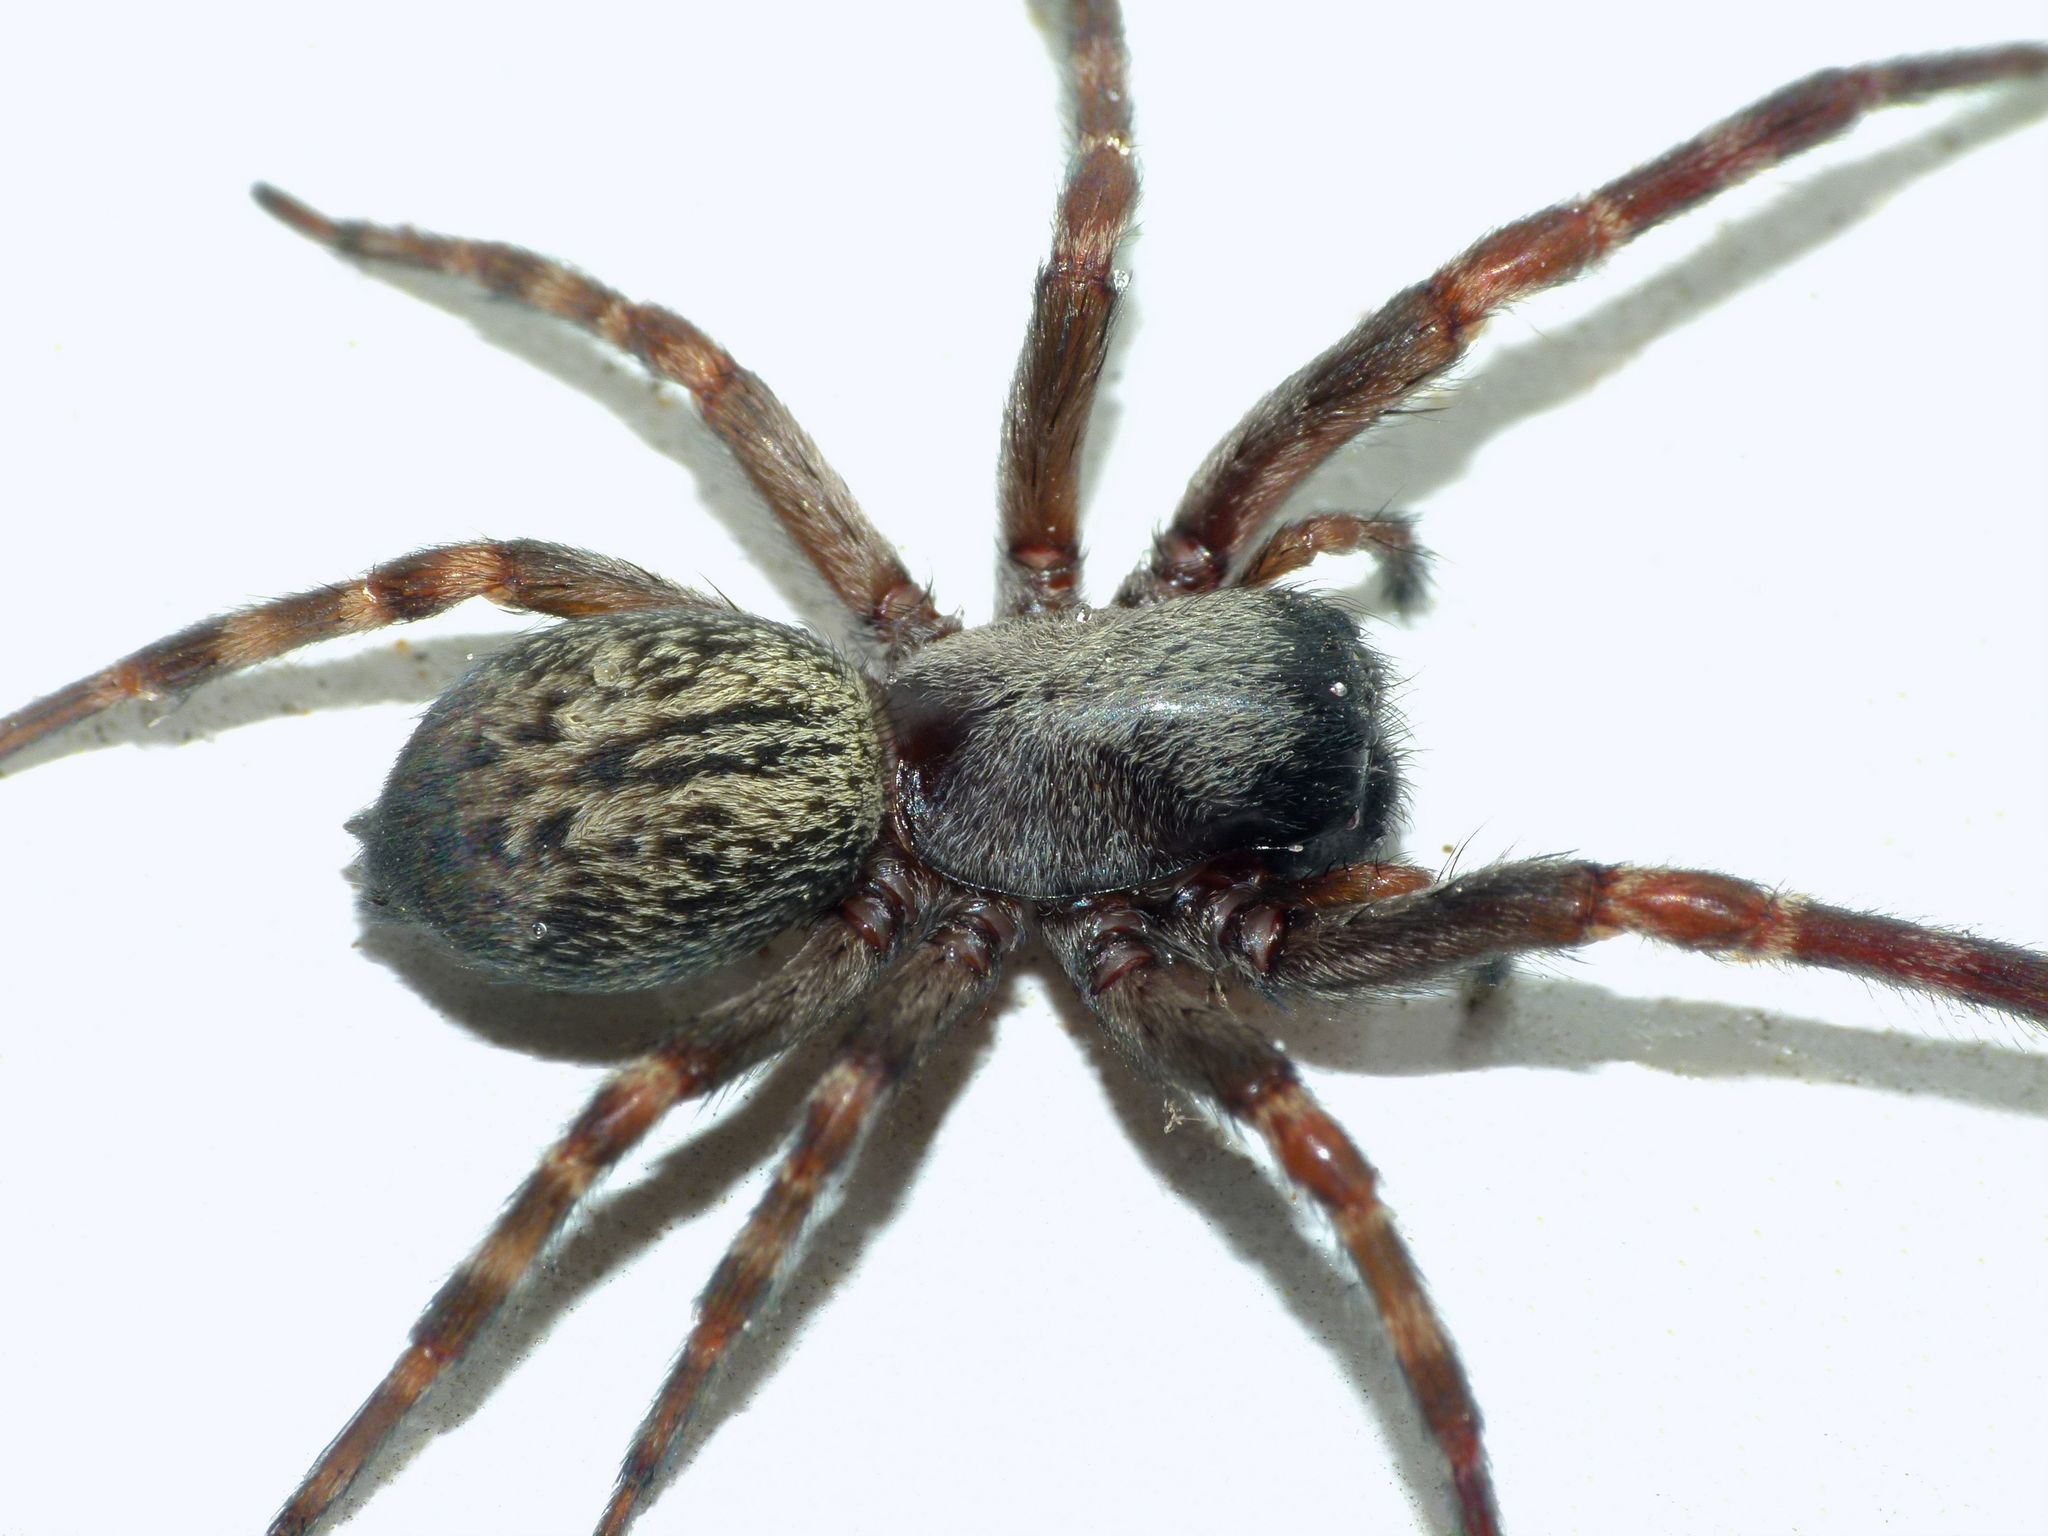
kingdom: Animalia
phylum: Arthropoda
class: Arachnida
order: Araneae
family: Desidae
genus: Badumna
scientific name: Badumna longinqua
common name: Gray house spider
